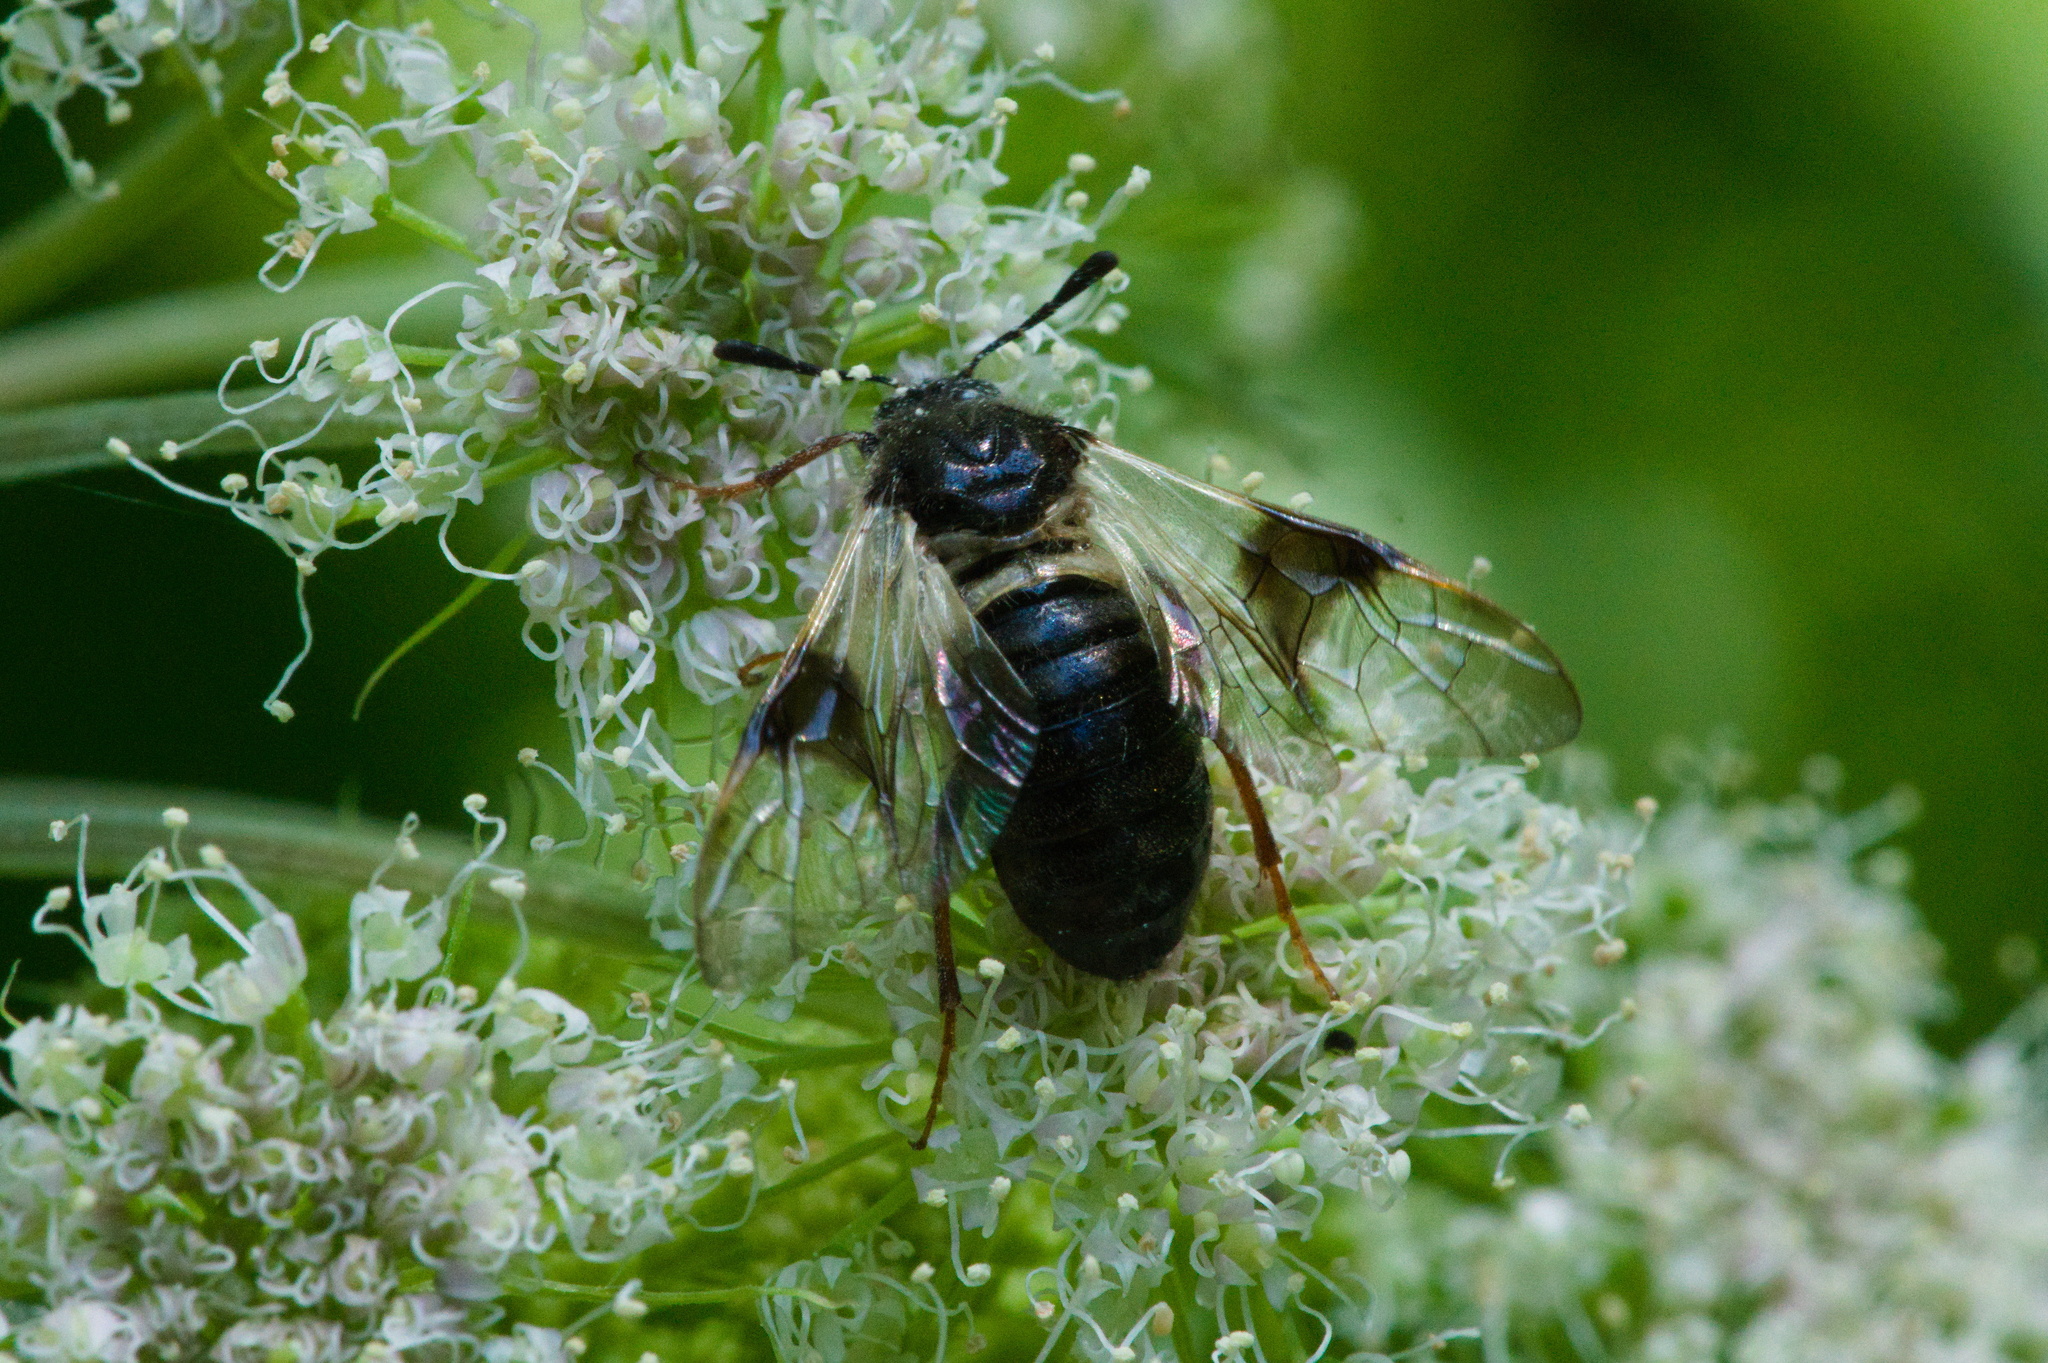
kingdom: Animalia
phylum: Arthropoda
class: Insecta
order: Hymenoptera
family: Cimbicidae
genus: Abia
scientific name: Abia fasciata
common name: Banded honeysuckle sawfly
